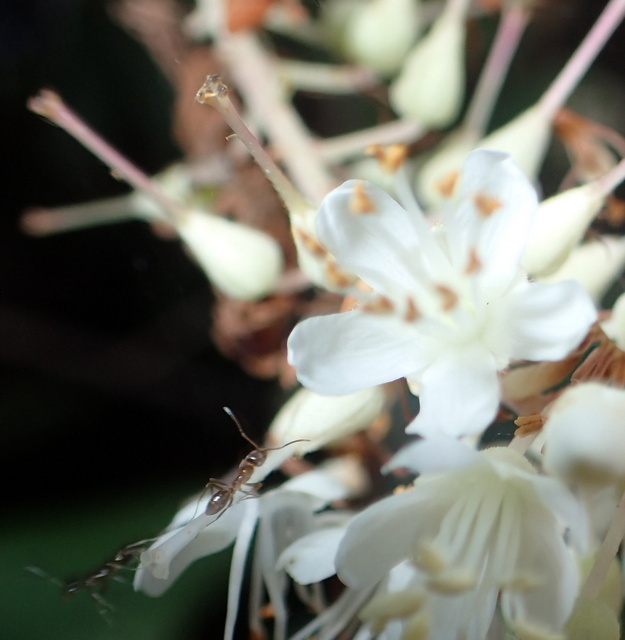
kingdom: Animalia
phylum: Arthropoda
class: Insecta
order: Hymenoptera
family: Formicidae
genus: Linepithema
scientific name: Linepithema humile
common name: Argentine ant
